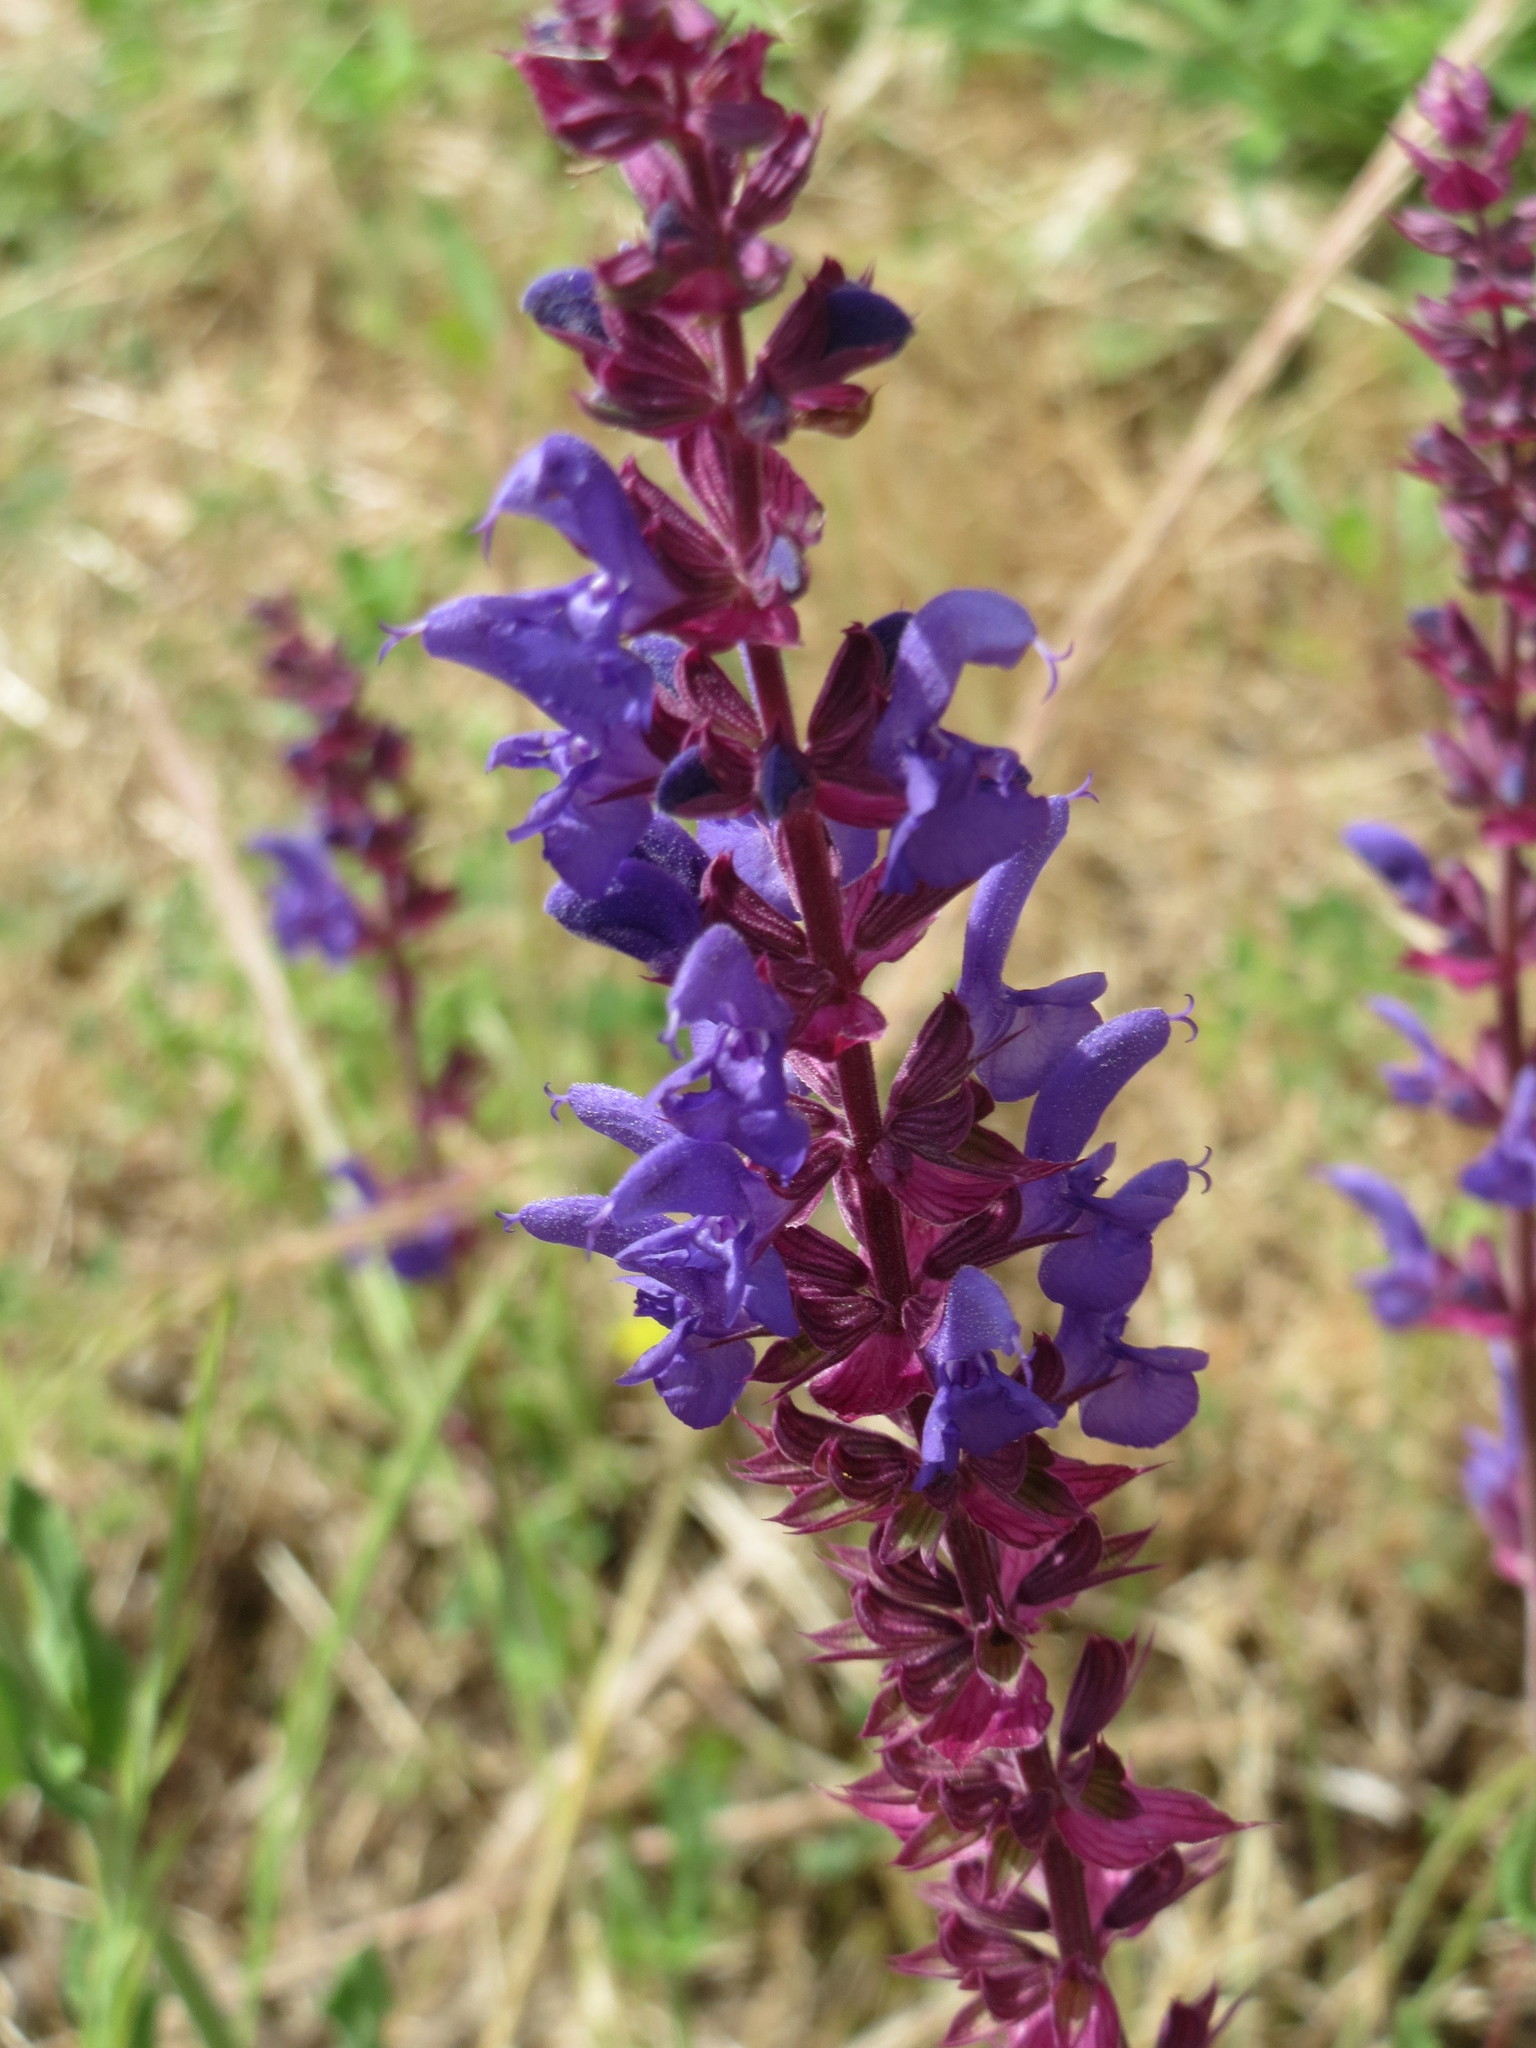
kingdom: Plantae
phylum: Tracheophyta
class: Magnoliopsida
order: Lamiales
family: Lamiaceae
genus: Salvia
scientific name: Salvia nemorosa
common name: Balkan clary
